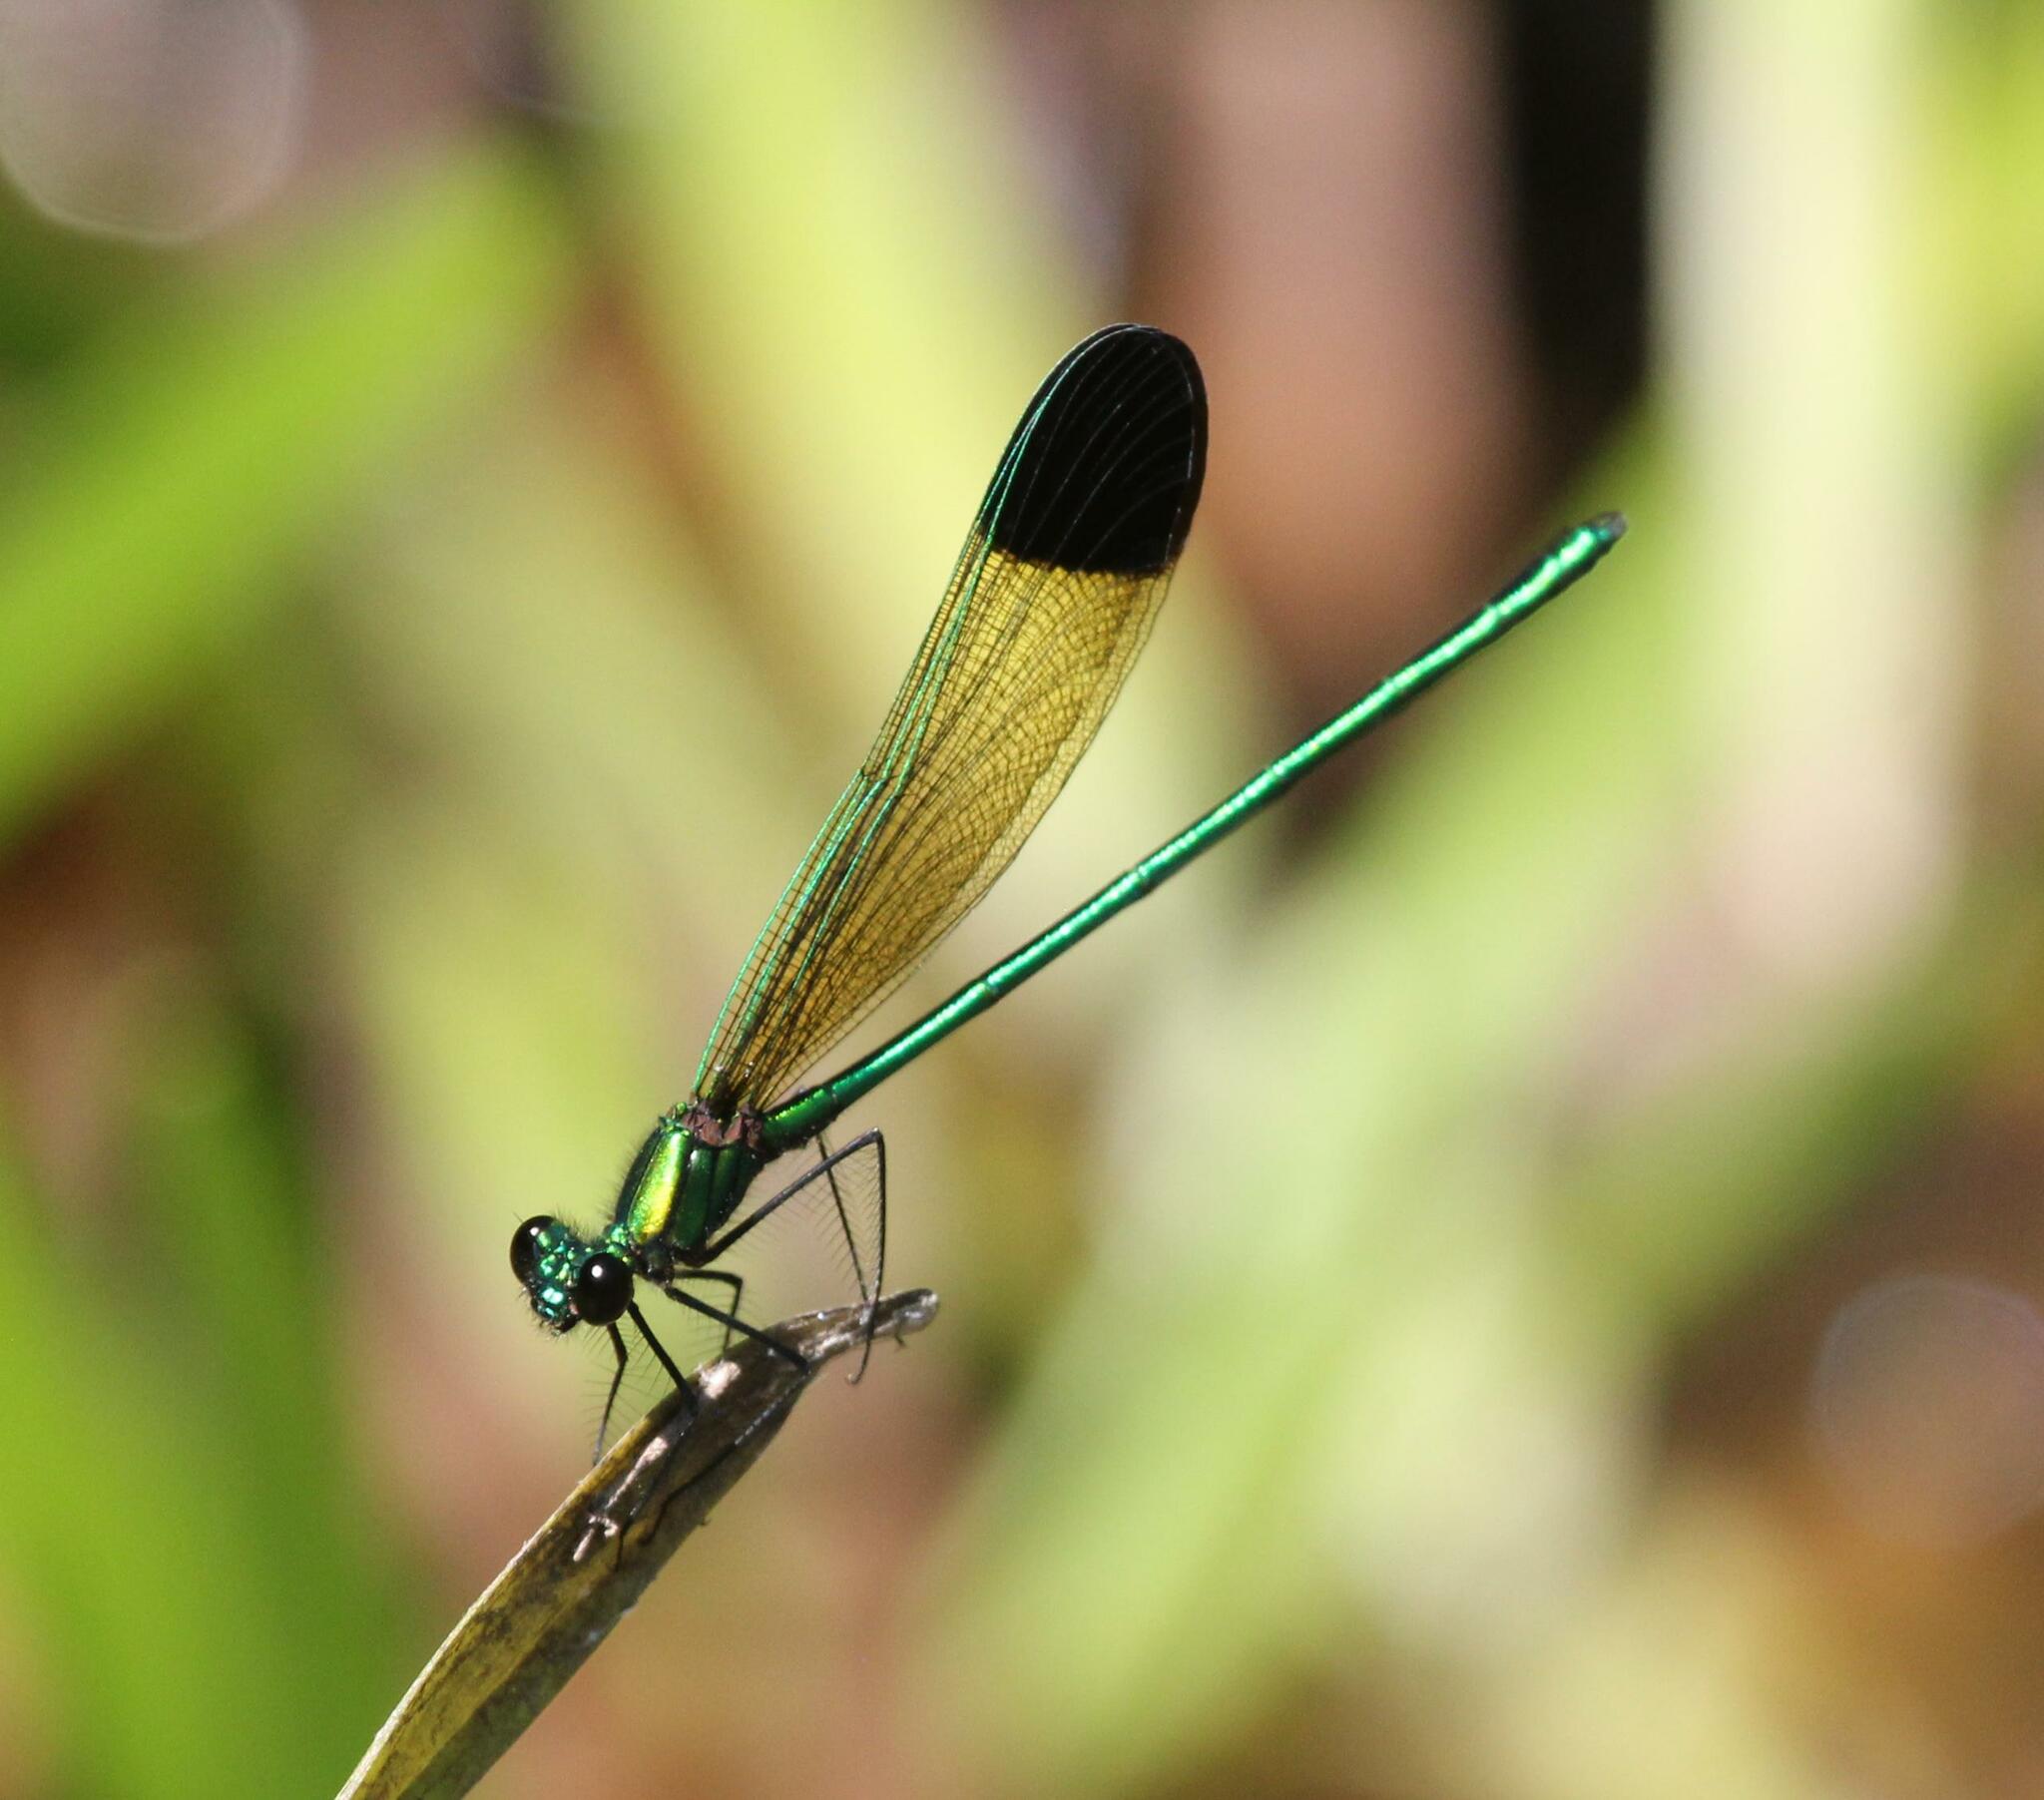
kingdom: Animalia
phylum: Arthropoda
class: Insecta
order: Odonata
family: Calopterygidae
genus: Calopteryx
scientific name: Calopteryx dimidiata
